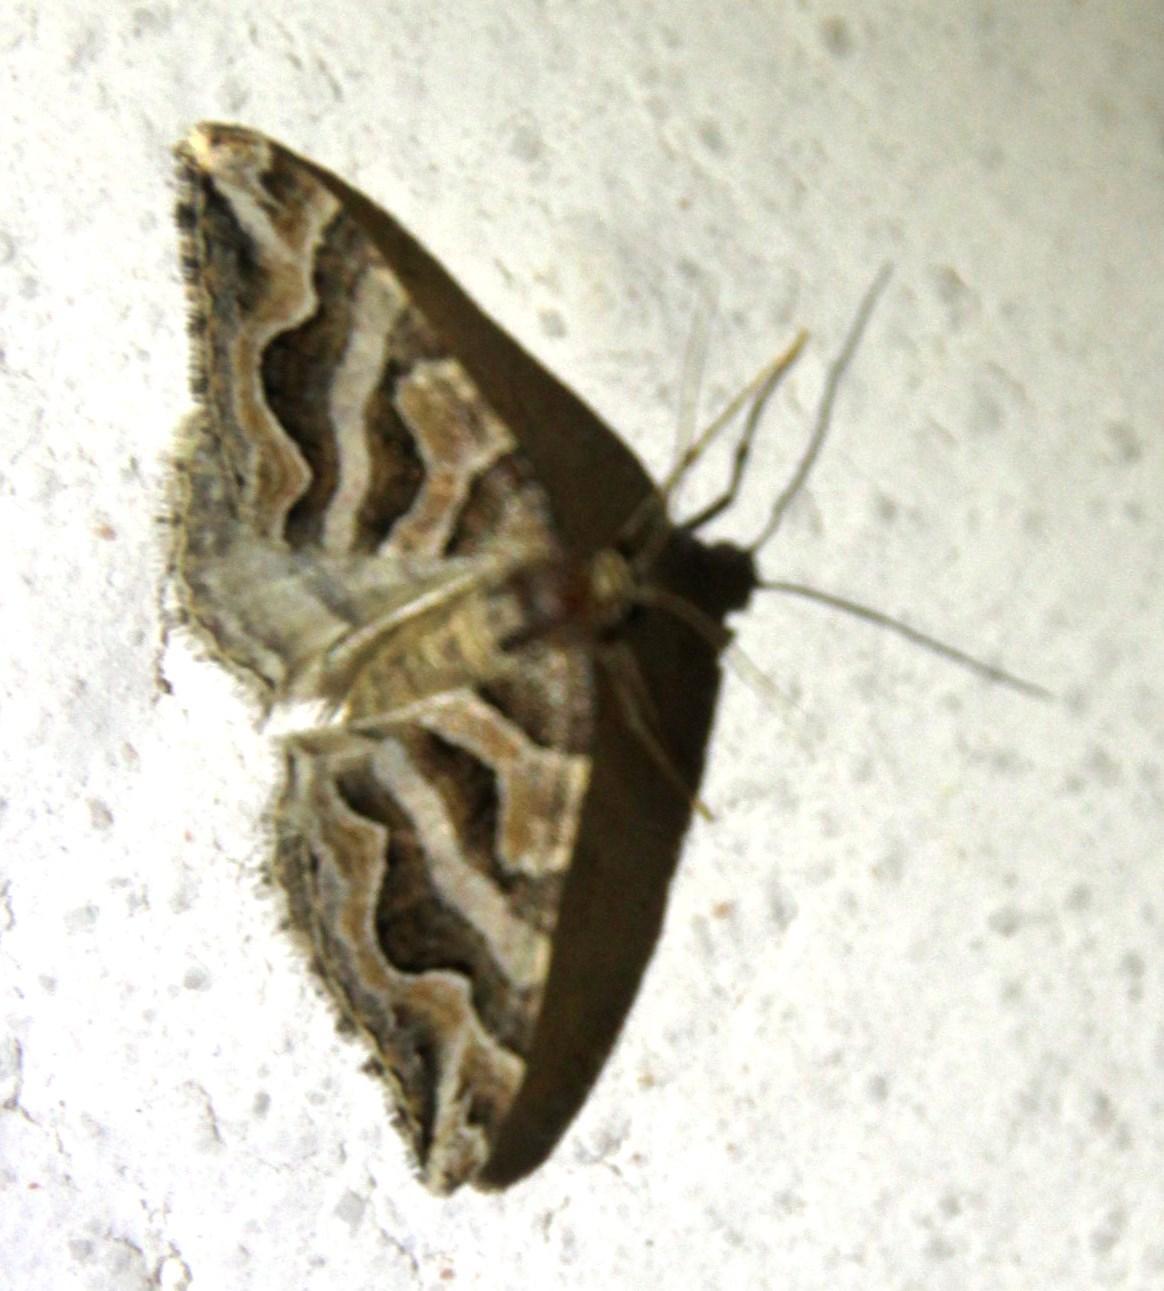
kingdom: Animalia
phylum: Arthropoda
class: Insecta
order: Lepidoptera
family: Geometridae
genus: Scotopteryx
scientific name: Scotopteryx deversa
